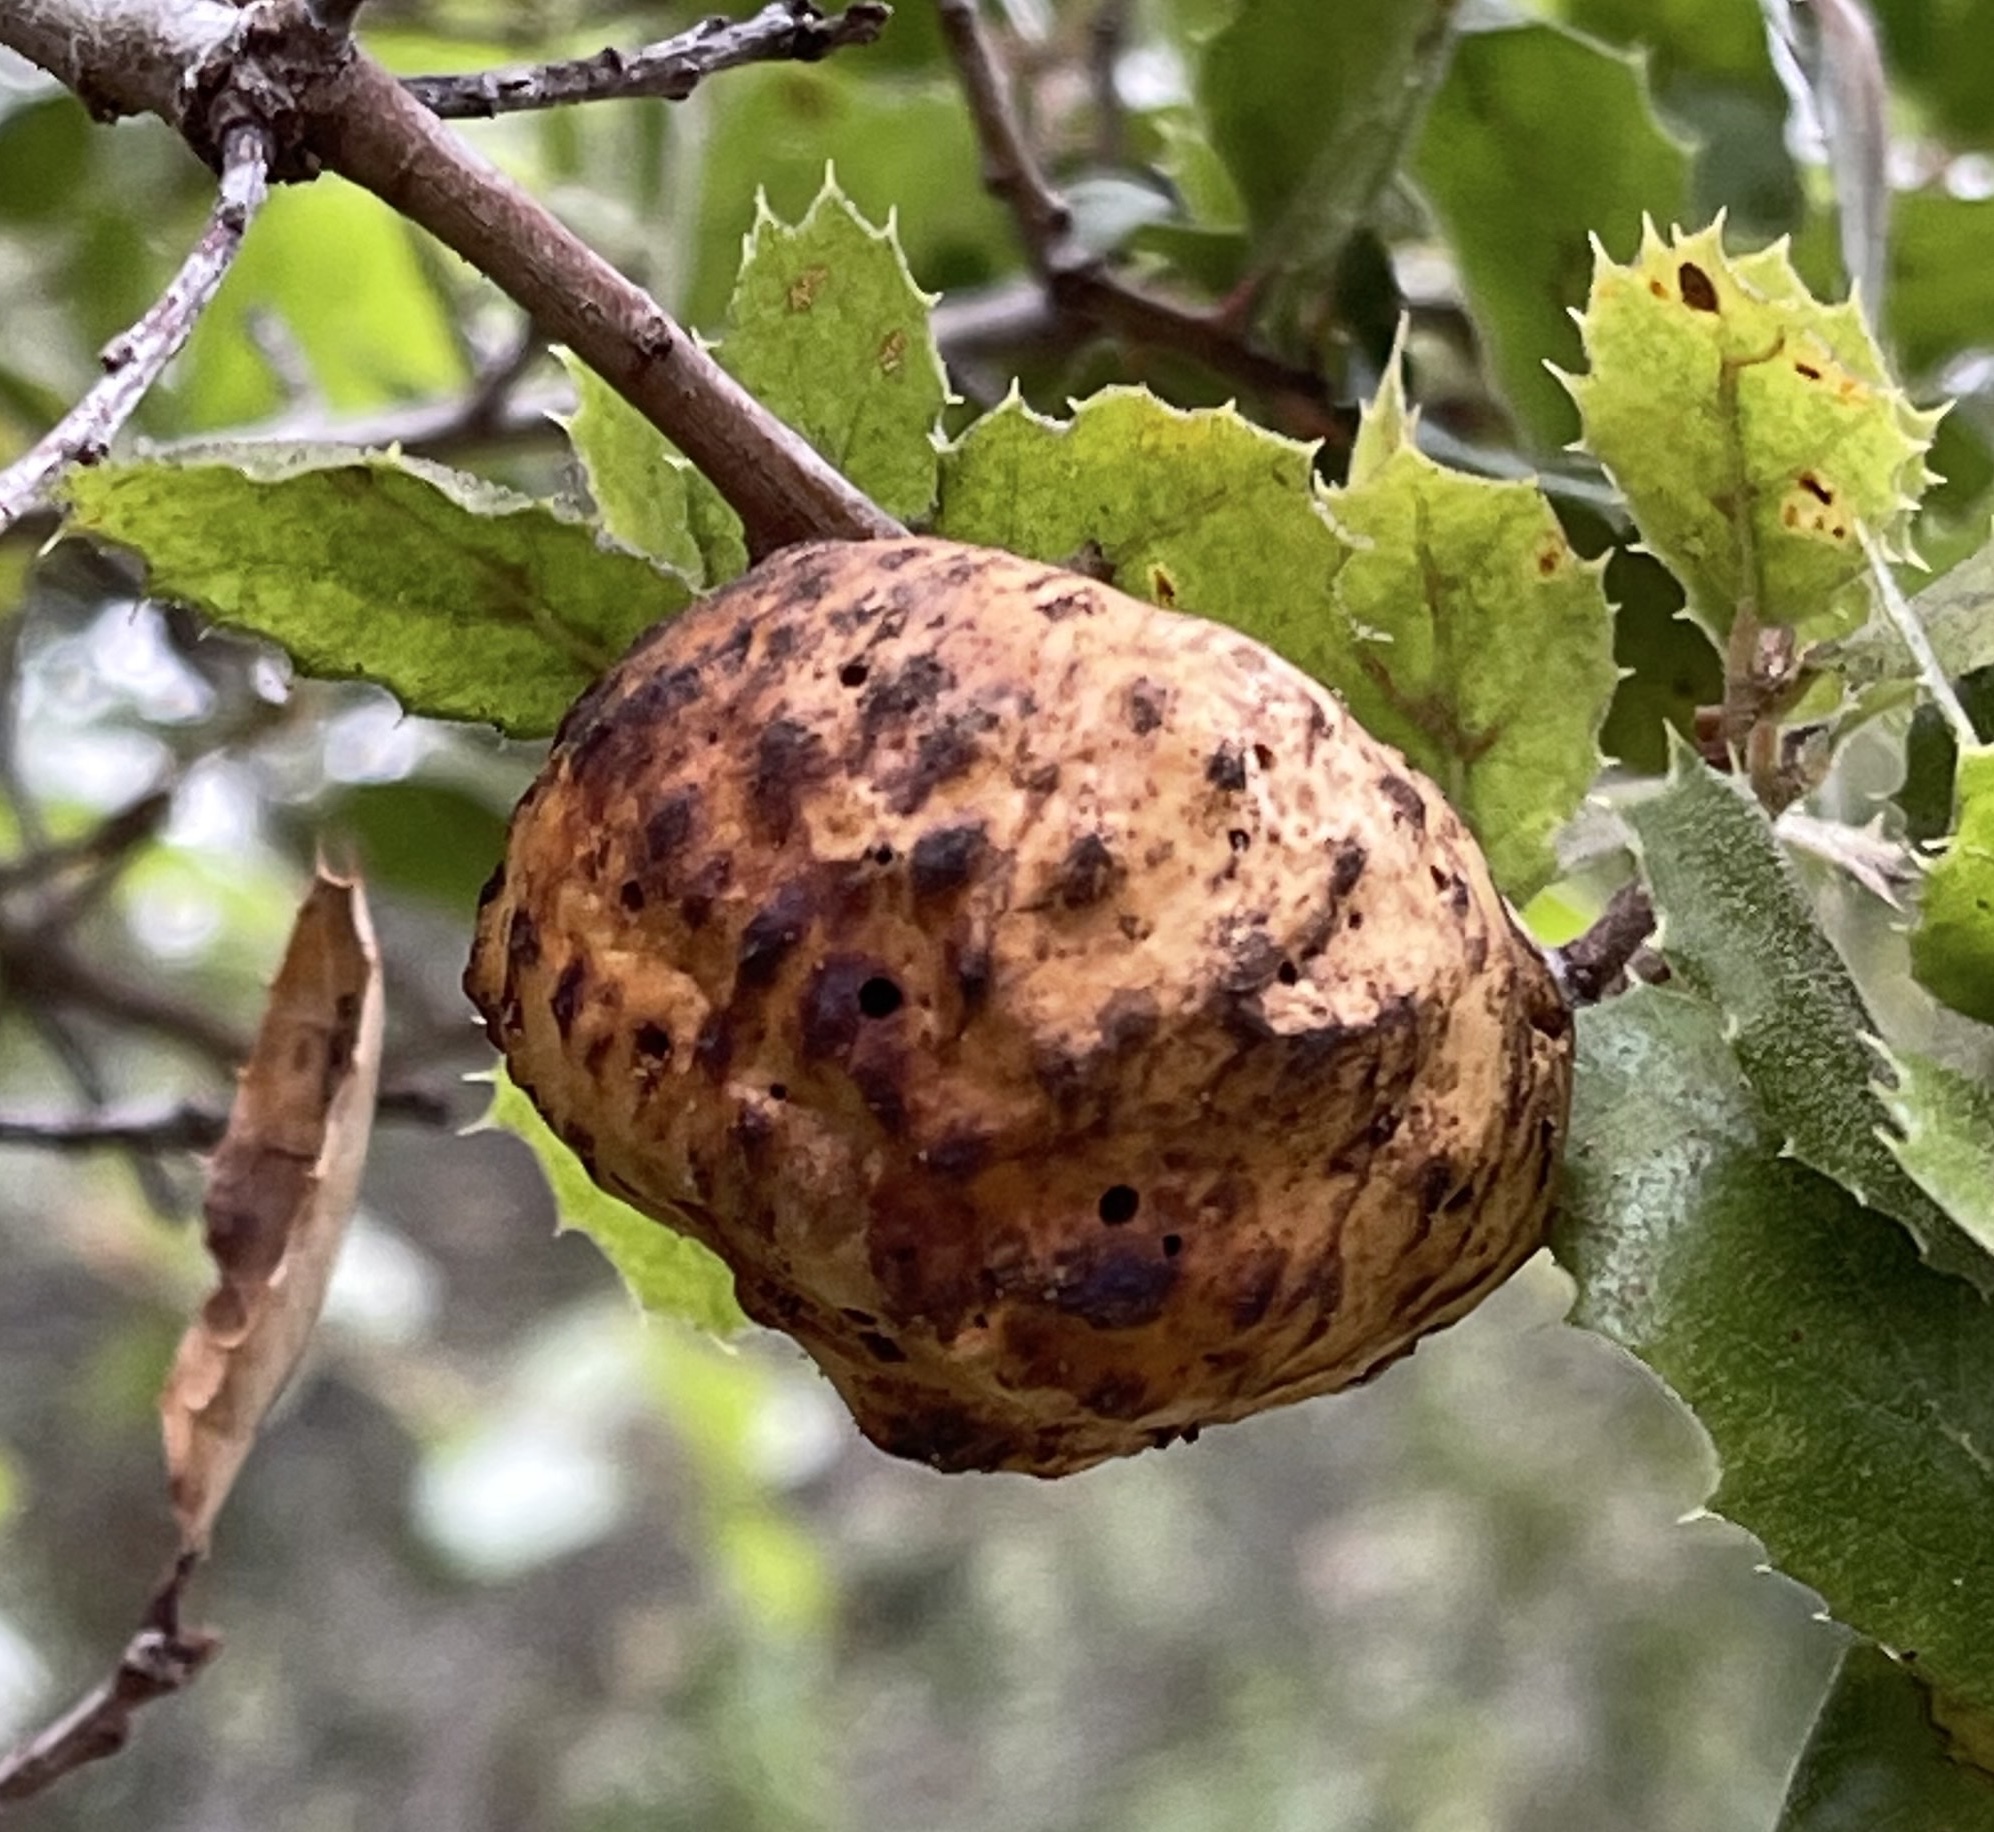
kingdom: Animalia
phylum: Arthropoda
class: Insecta
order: Hymenoptera
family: Cynipidae
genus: Amphibolips
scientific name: Amphibolips quercuspomiformis
